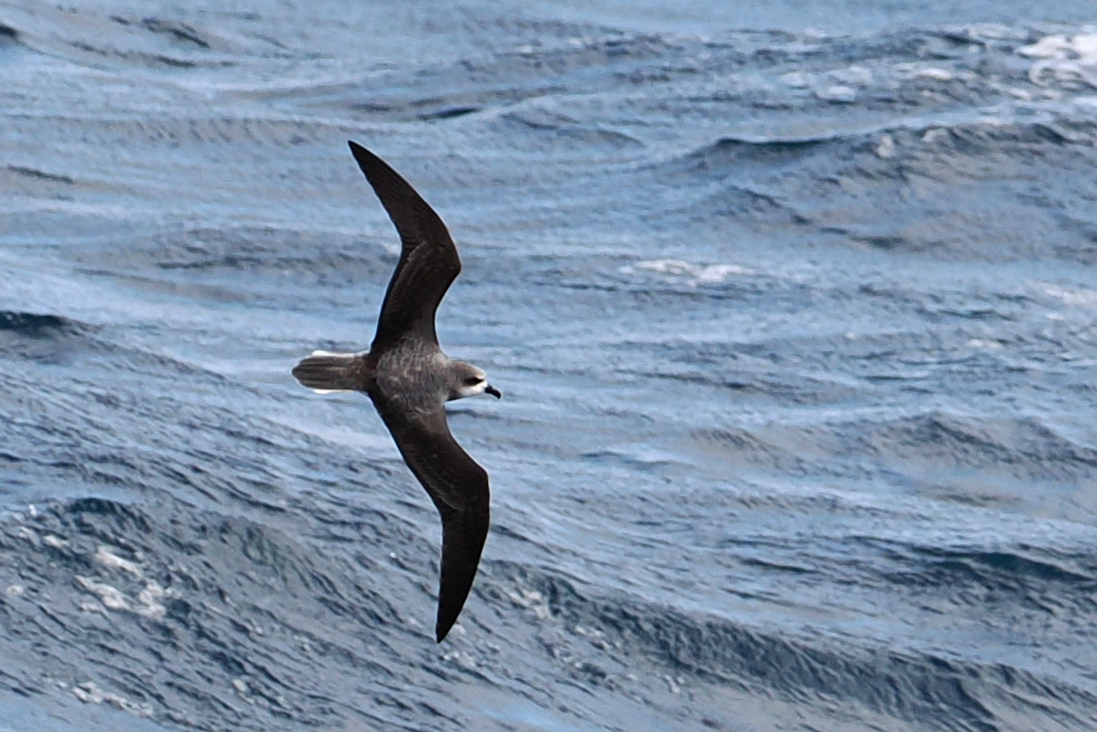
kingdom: Animalia
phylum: Chordata
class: Aves
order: Procellariiformes
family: Procellariidae
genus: Pterodroma
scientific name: Pterodroma mollis
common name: Soft-plumaged petrel
